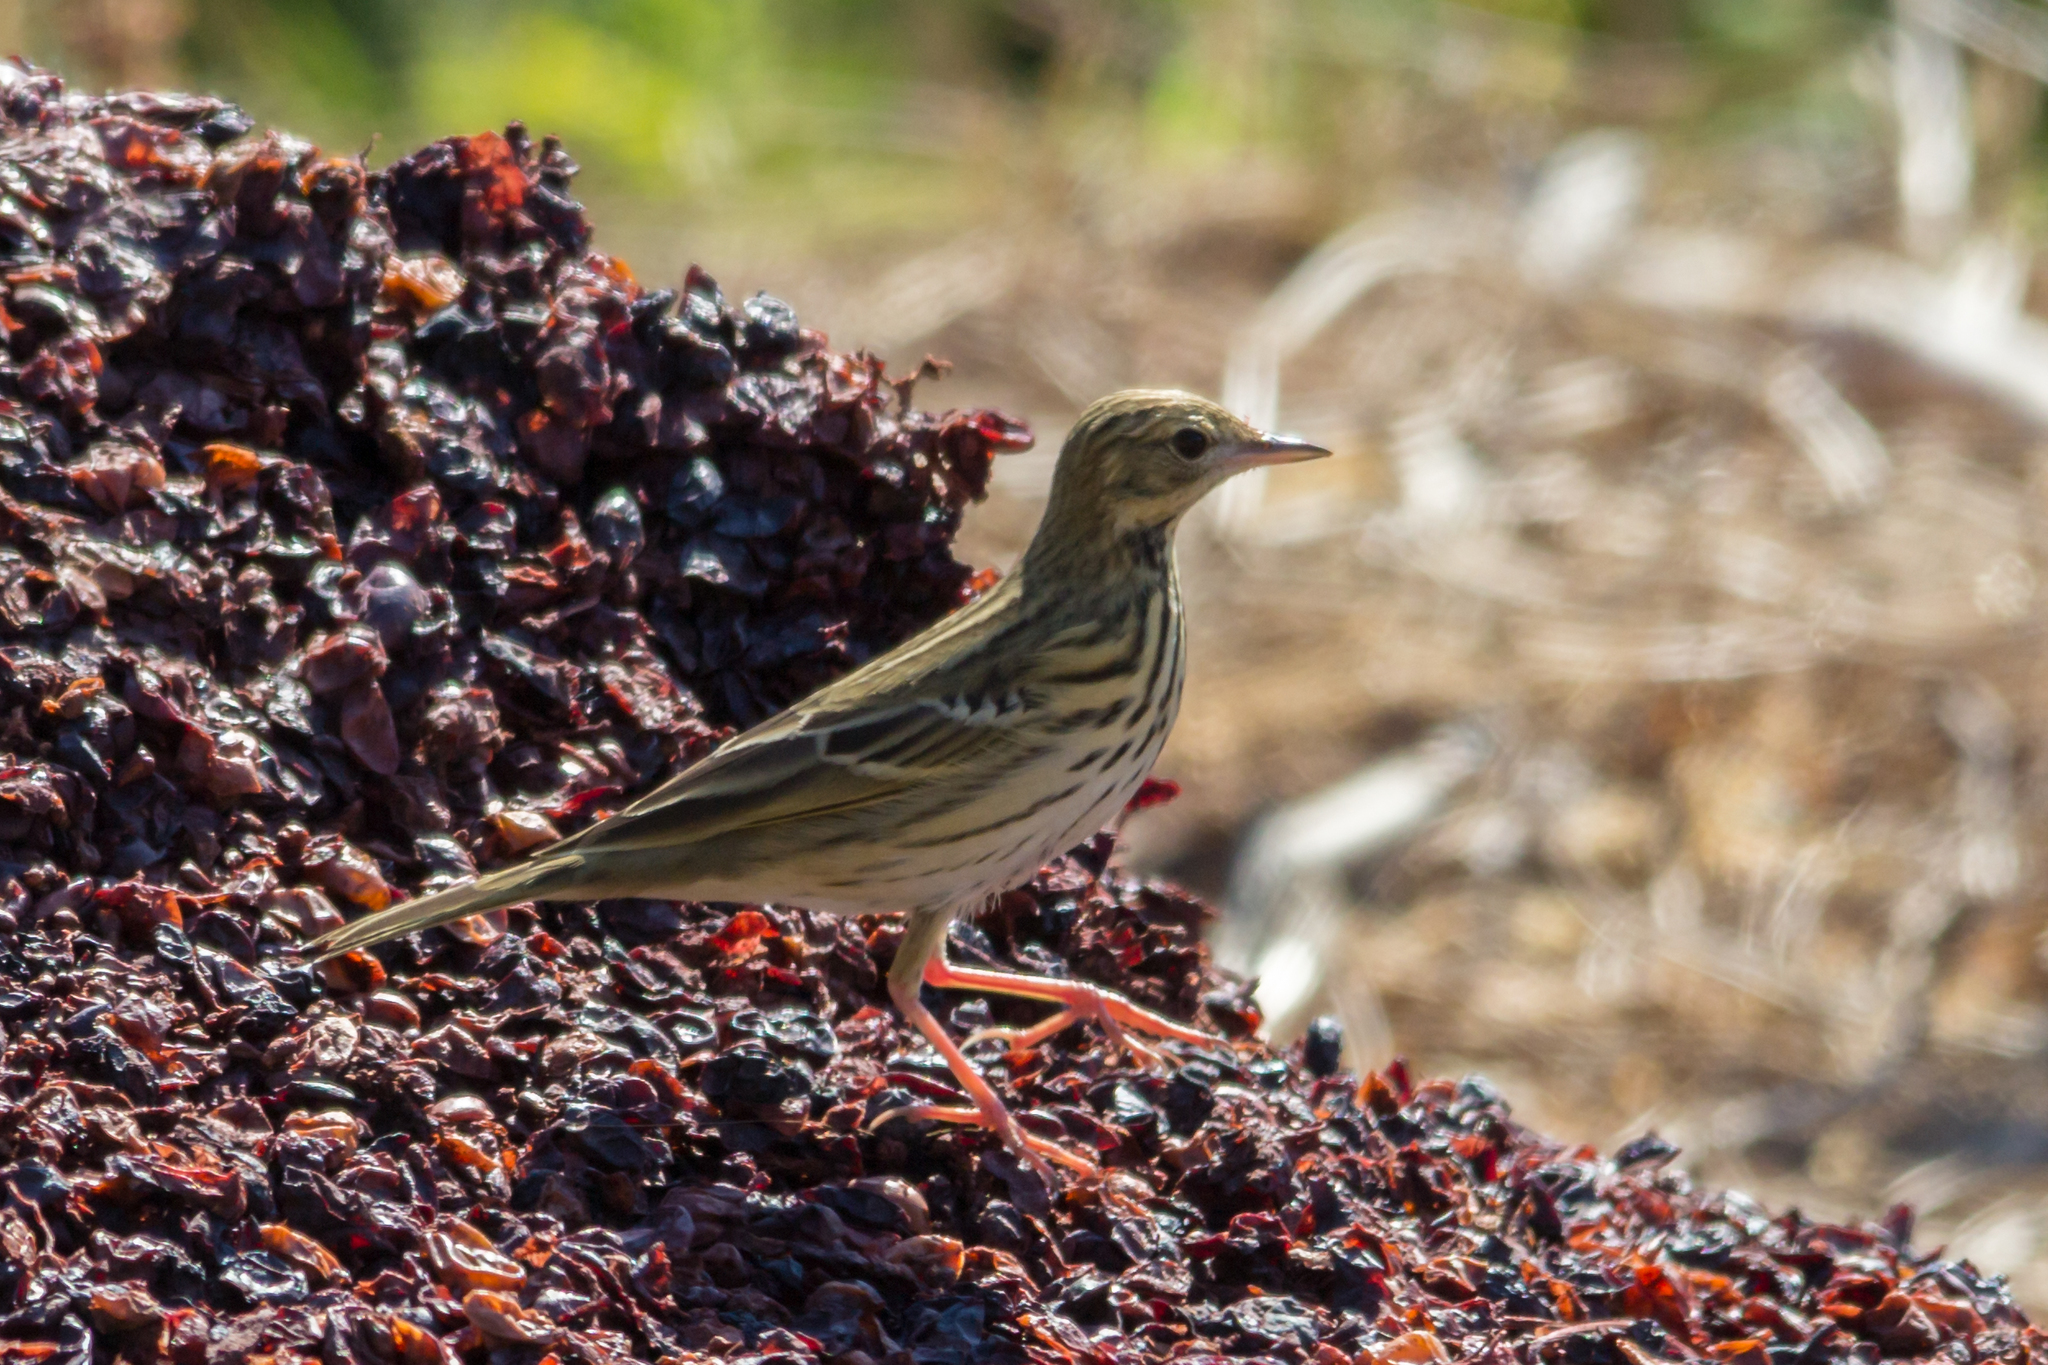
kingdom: Animalia
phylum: Chordata
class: Aves
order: Passeriformes
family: Motacillidae
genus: Anthus
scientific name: Anthus trivialis
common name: Tree pipit
